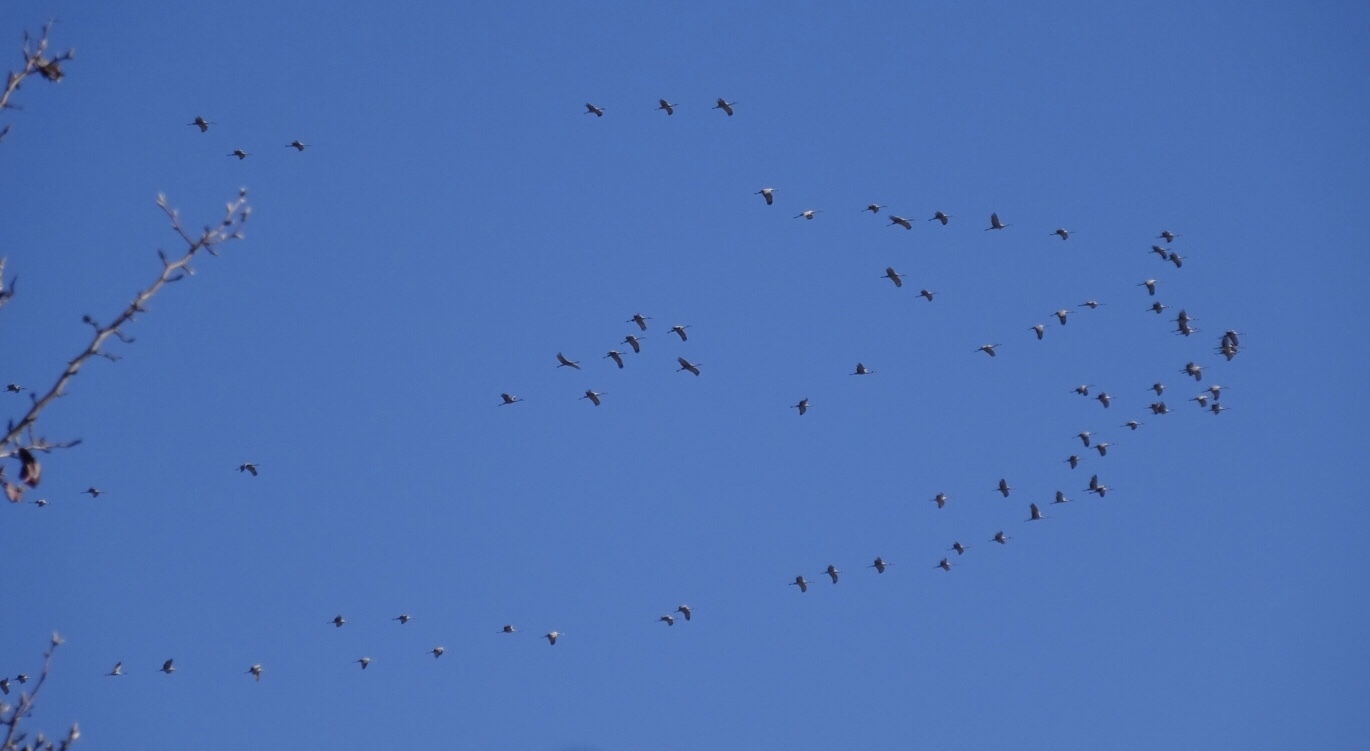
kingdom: Animalia
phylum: Chordata
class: Aves
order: Gruiformes
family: Gruidae
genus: Grus
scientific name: Grus canadensis
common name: Sandhill crane
